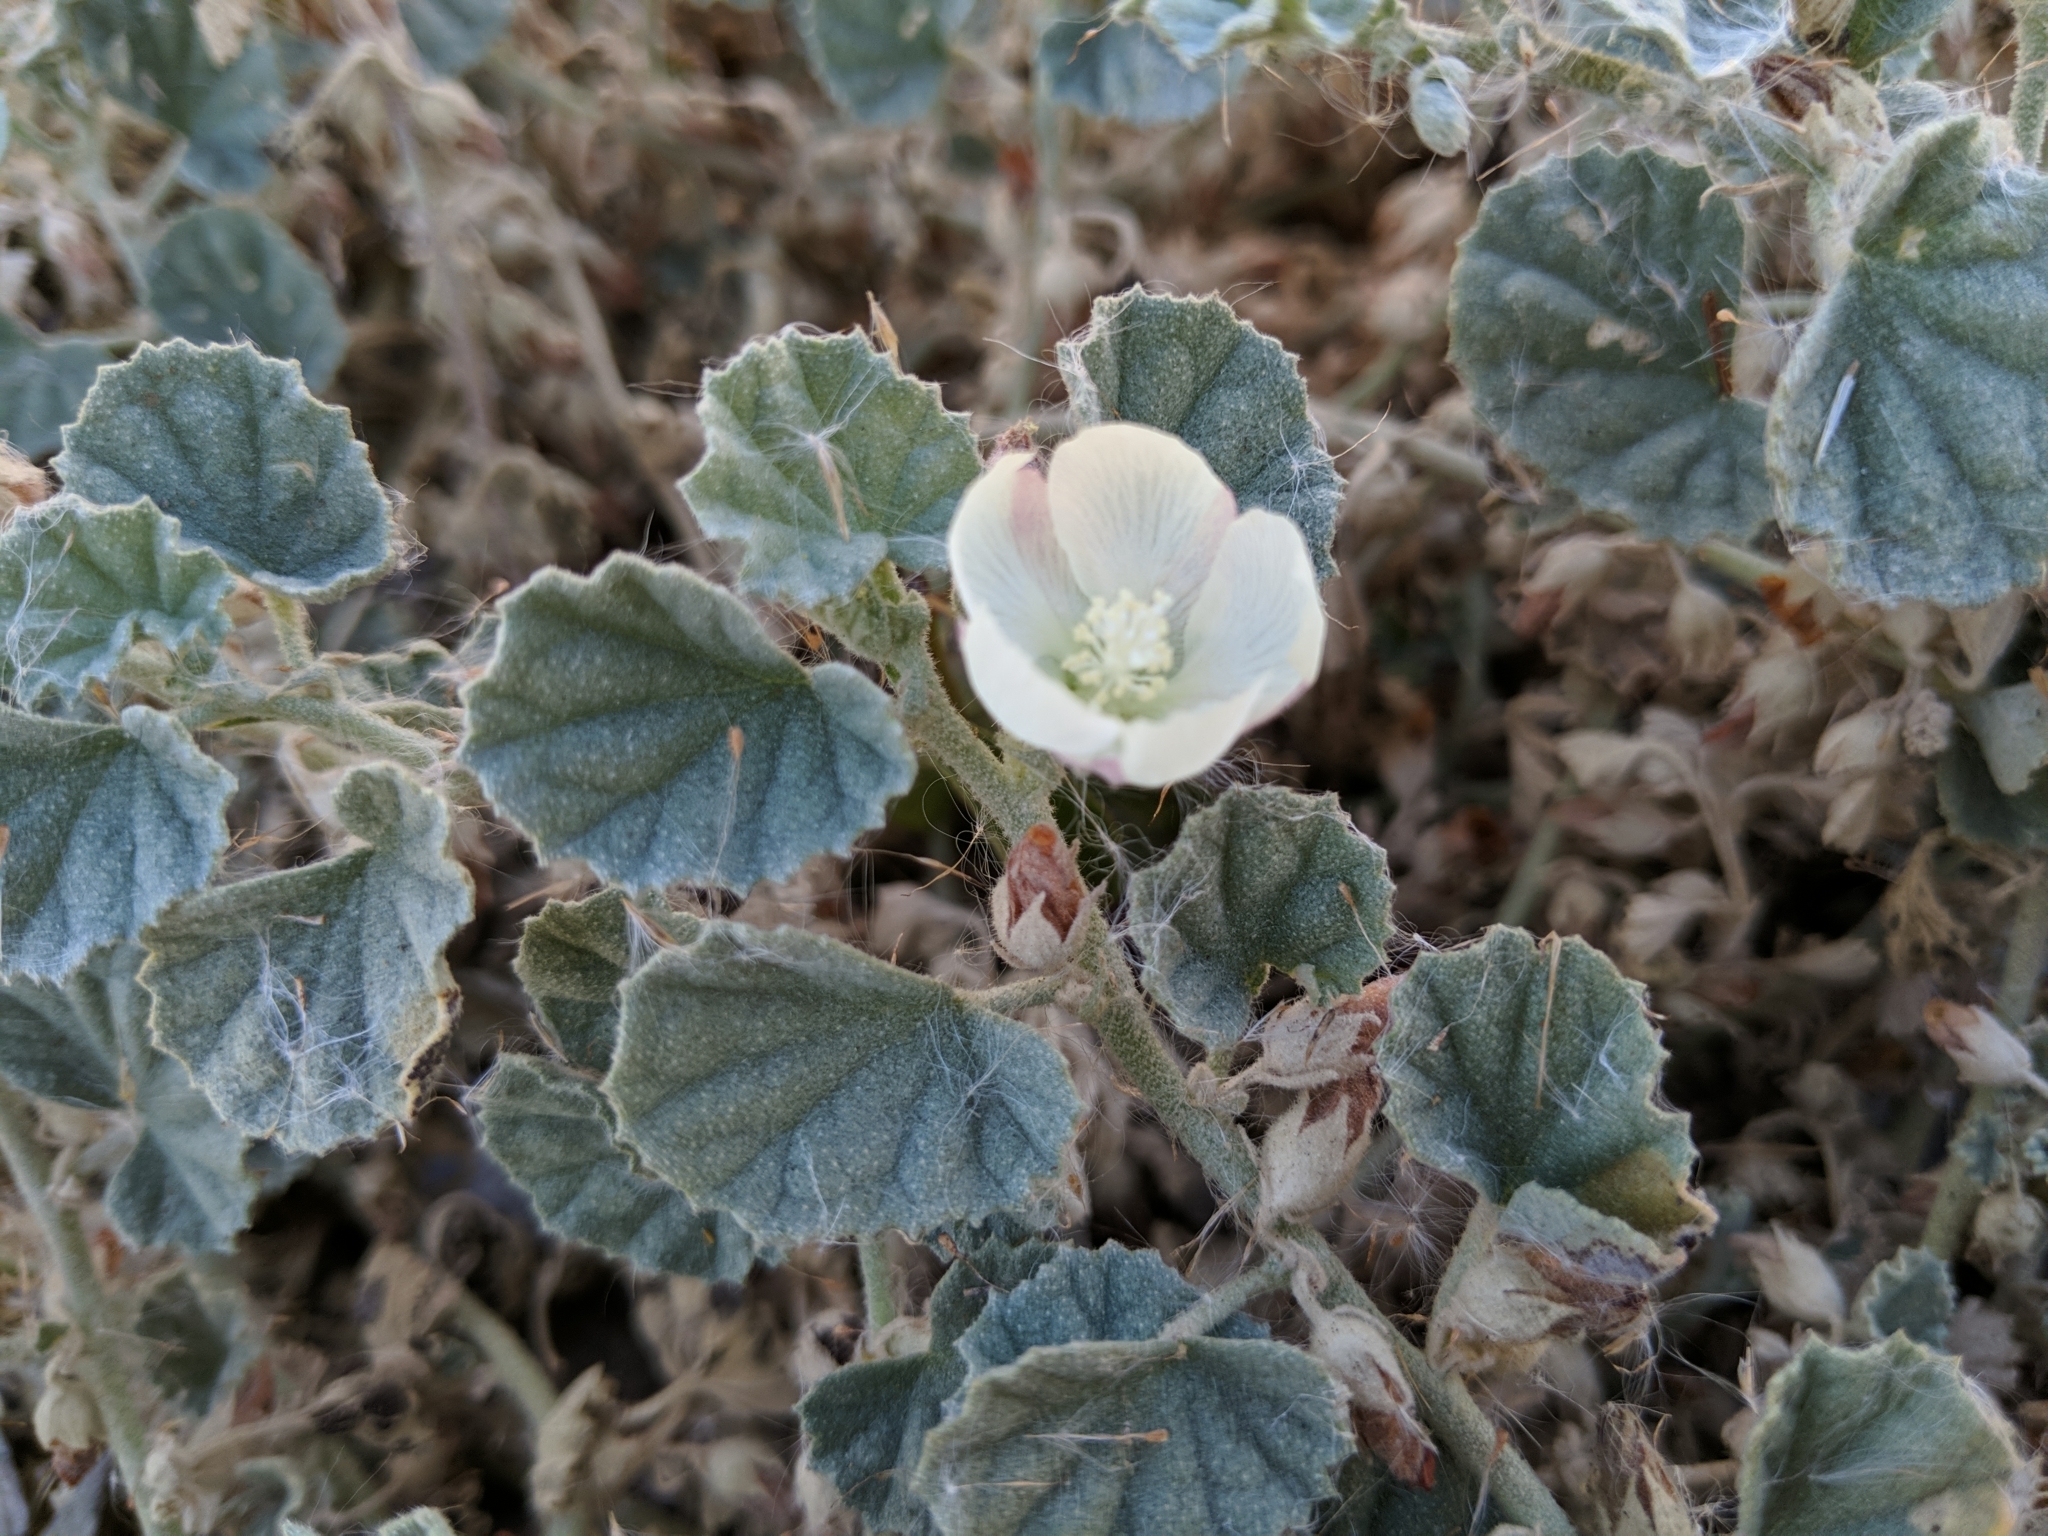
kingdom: Plantae
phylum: Tracheophyta
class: Magnoliopsida
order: Malvales
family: Malvaceae
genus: Malvella
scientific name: Malvella leprosa
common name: Alkali-mallow
